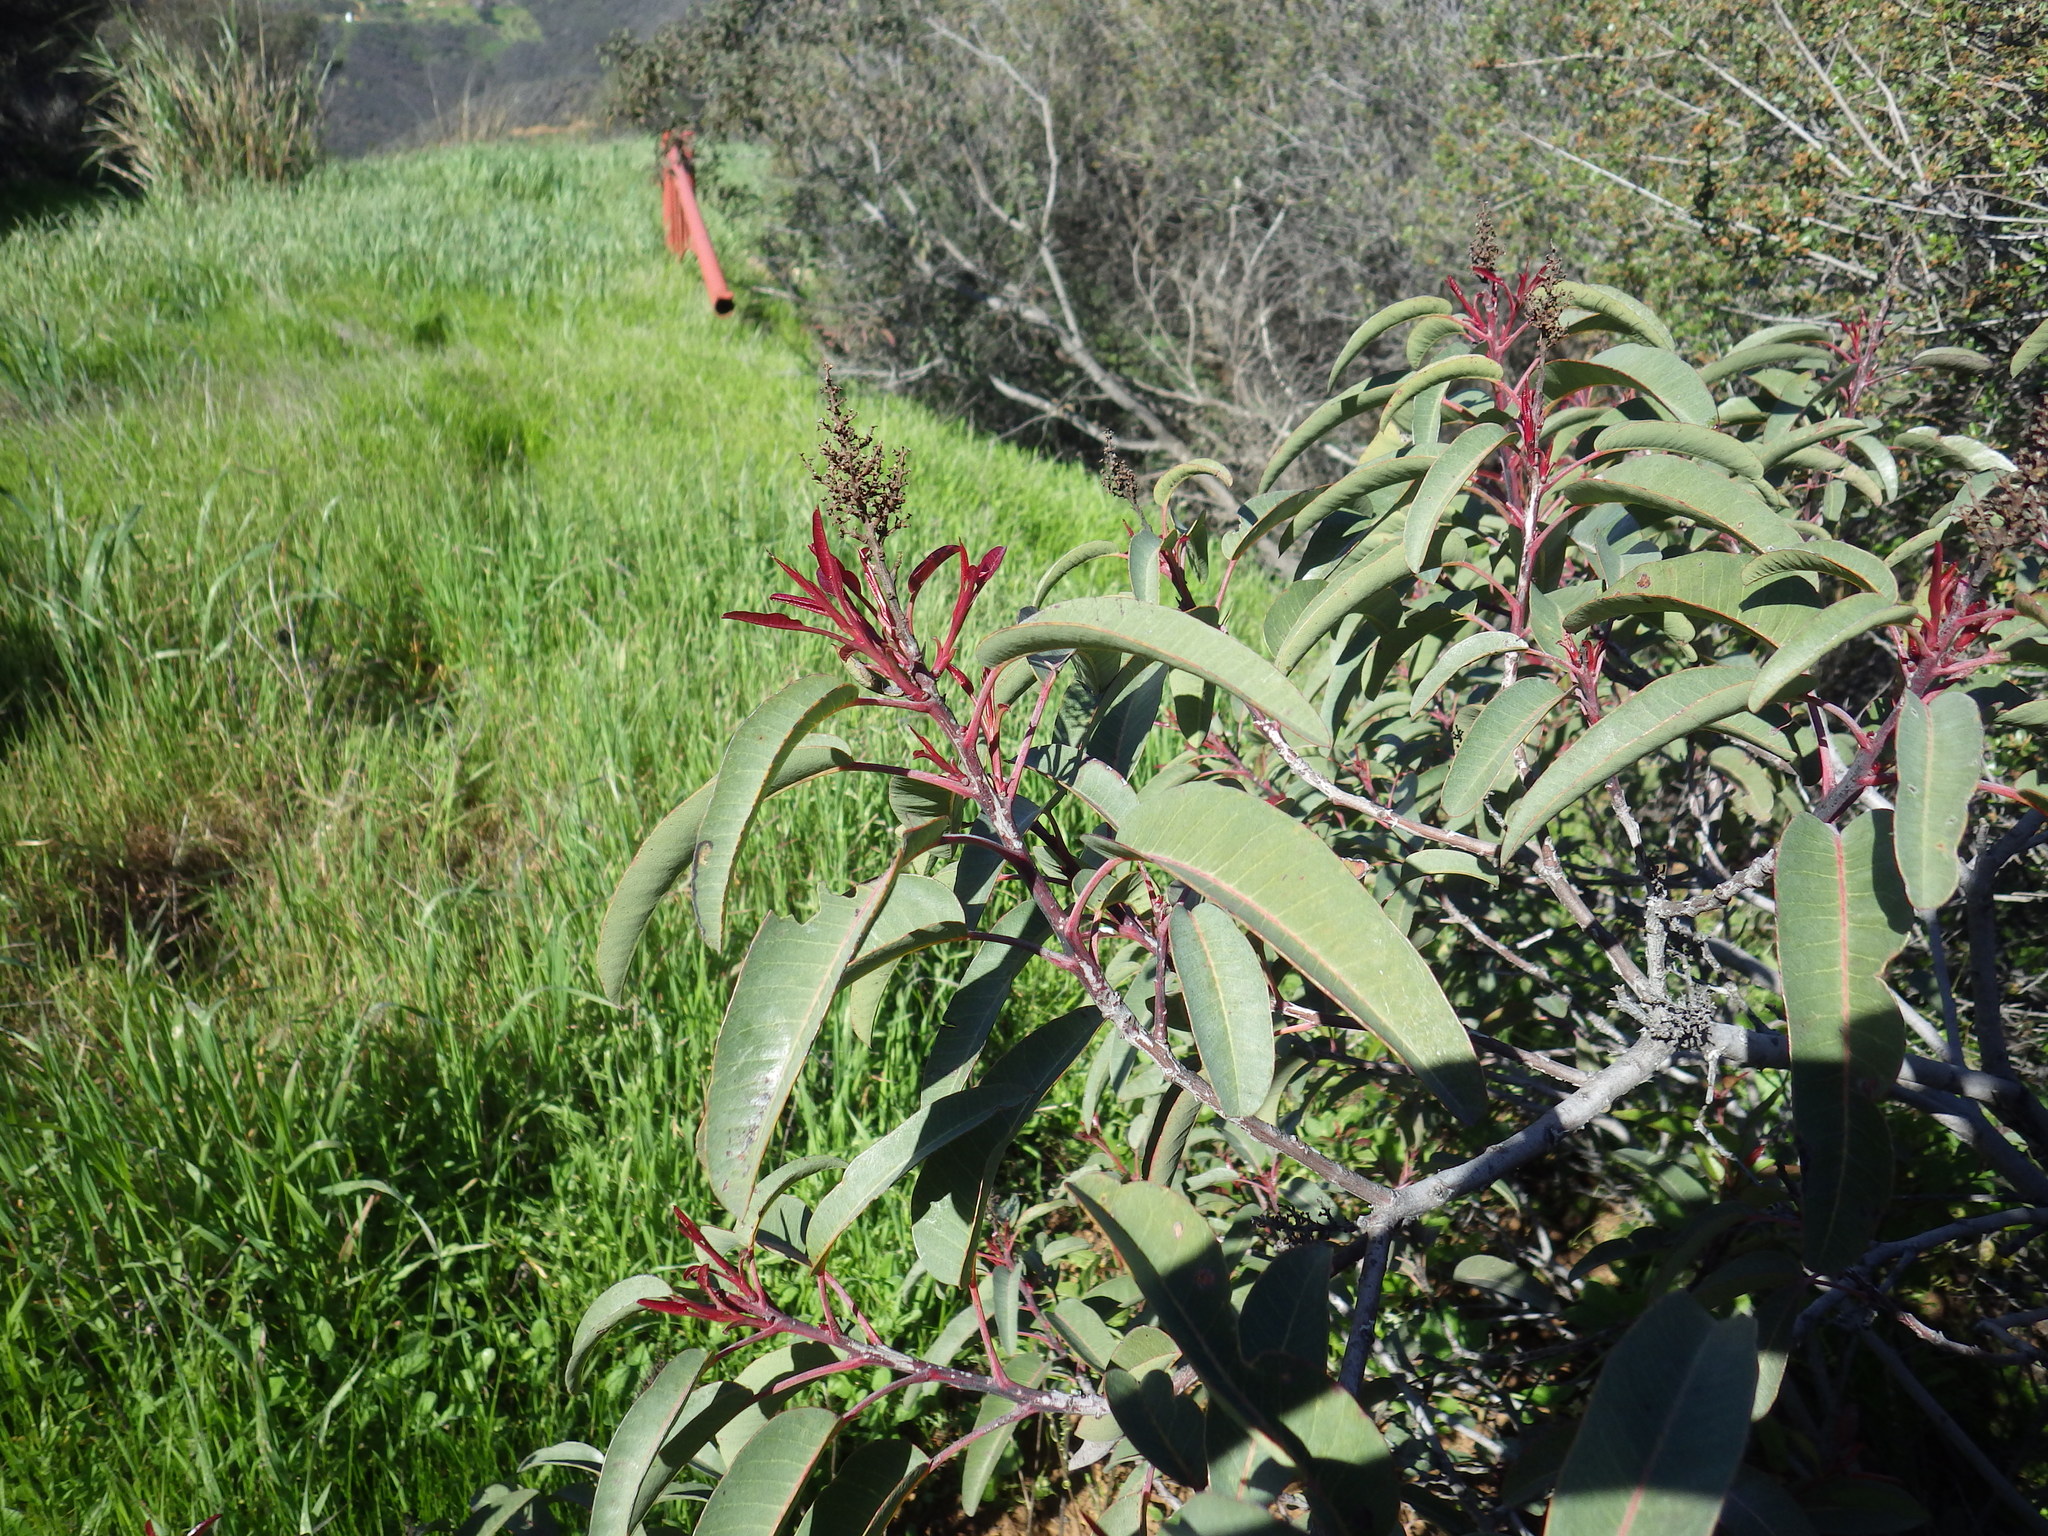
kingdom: Plantae
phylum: Tracheophyta
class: Magnoliopsida
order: Sapindales
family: Anacardiaceae
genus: Malosma
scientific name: Malosma laurina
